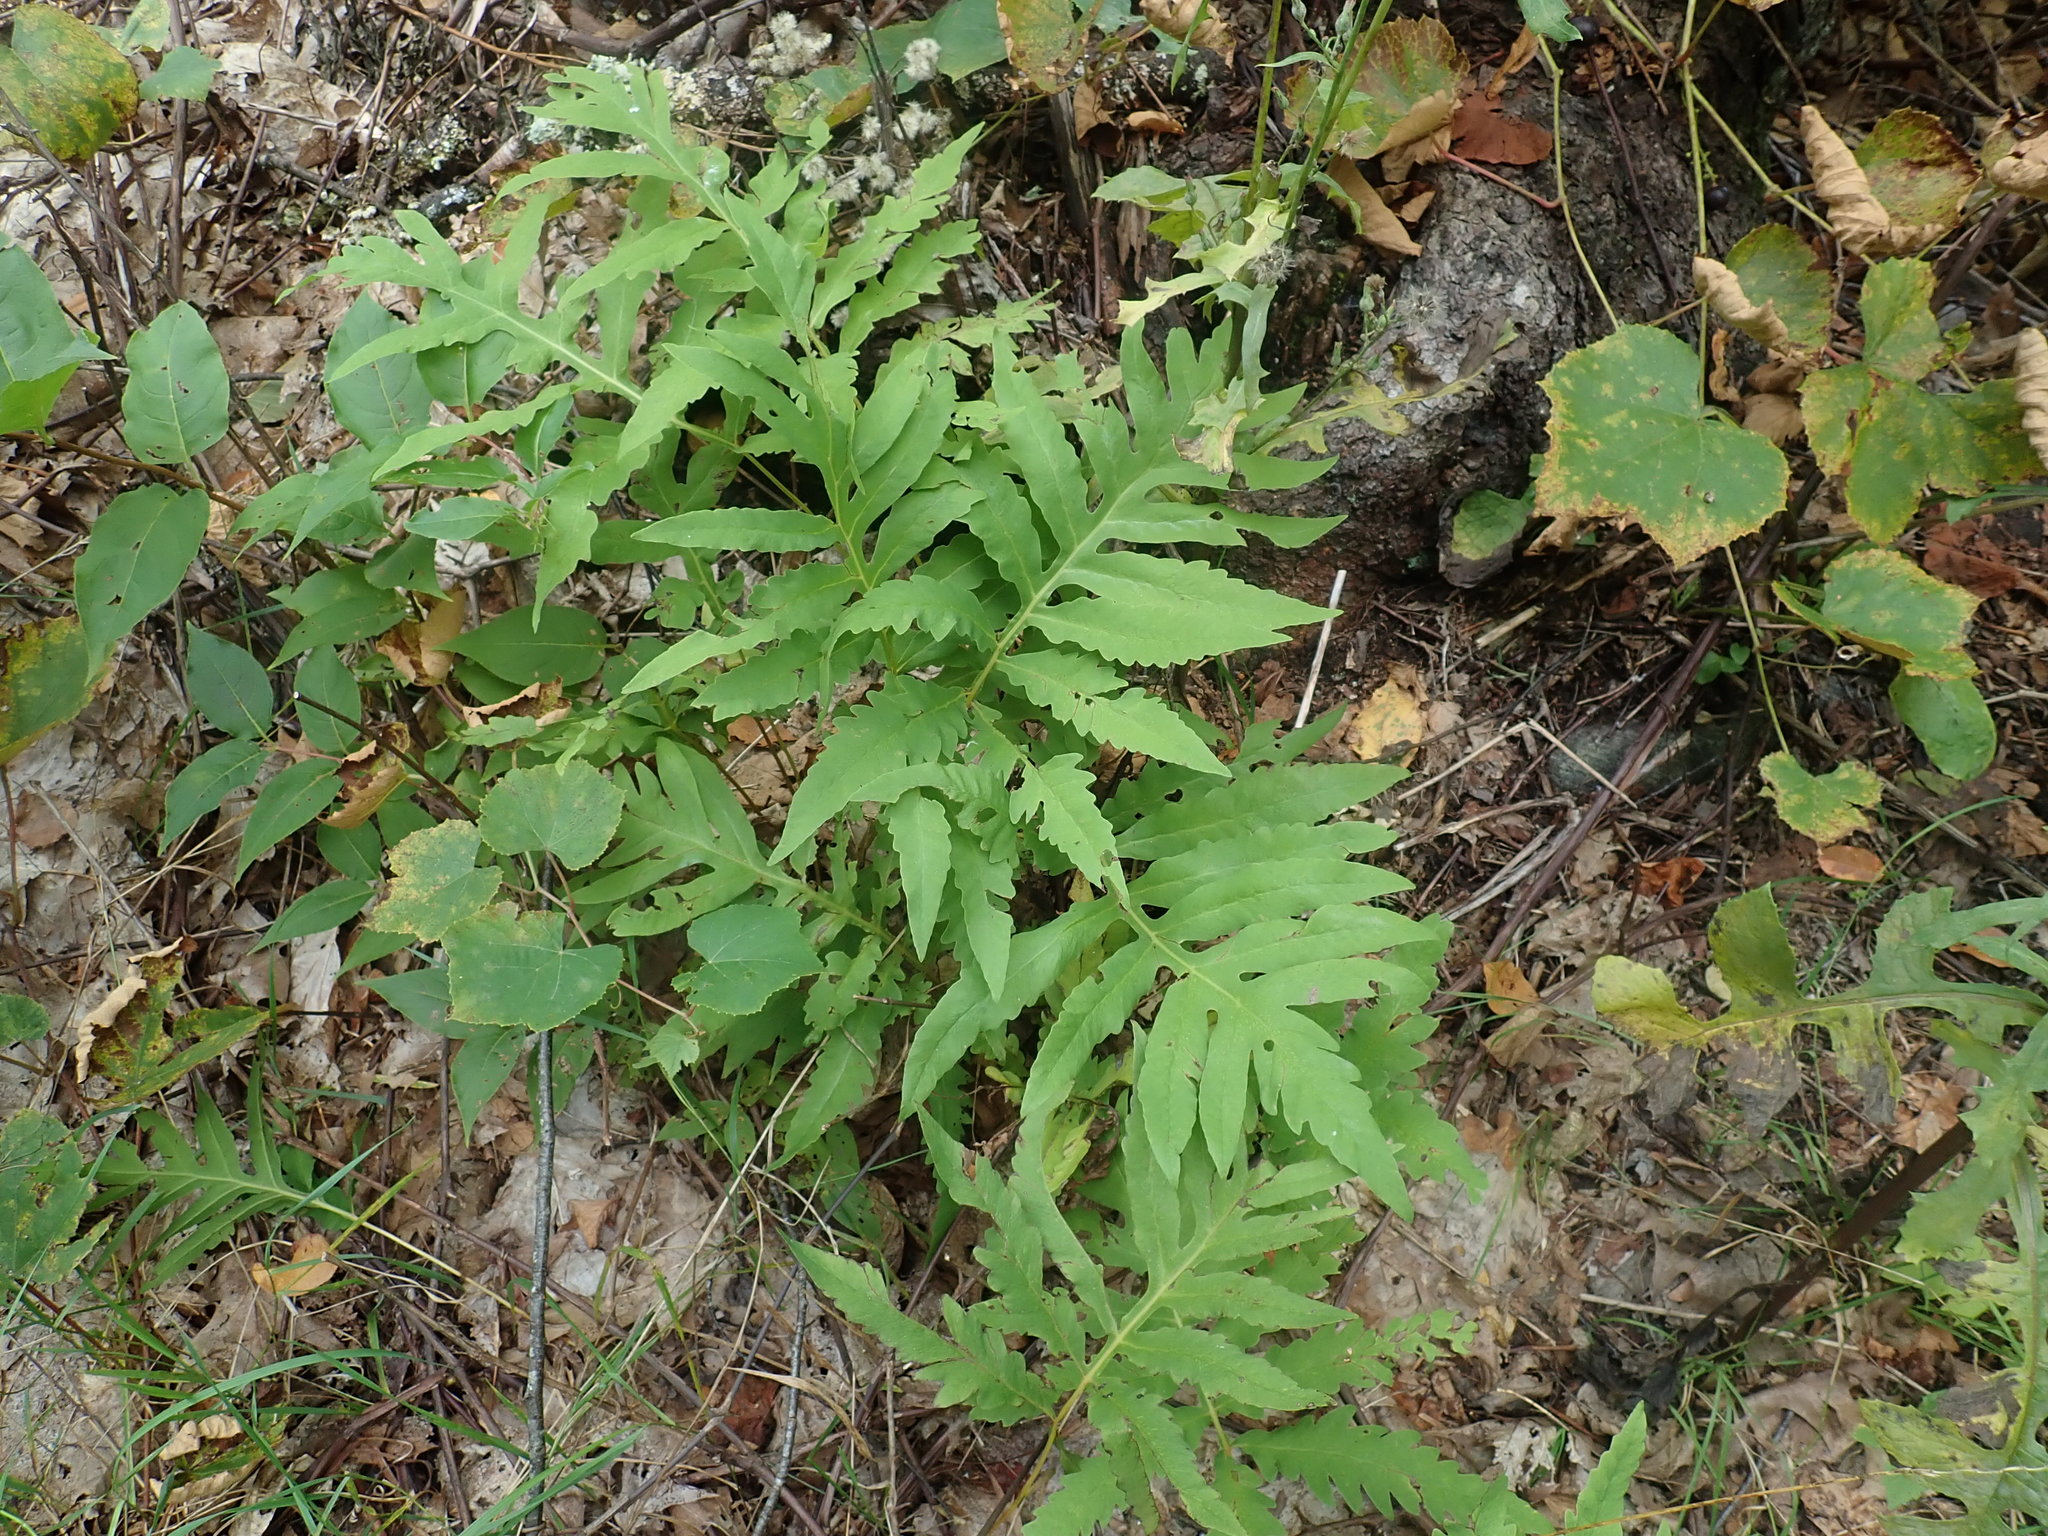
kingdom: Plantae
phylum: Tracheophyta
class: Polypodiopsida
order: Polypodiales
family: Onocleaceae
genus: Onoclea
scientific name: Onoclea sensibilis
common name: Sensitive fern
